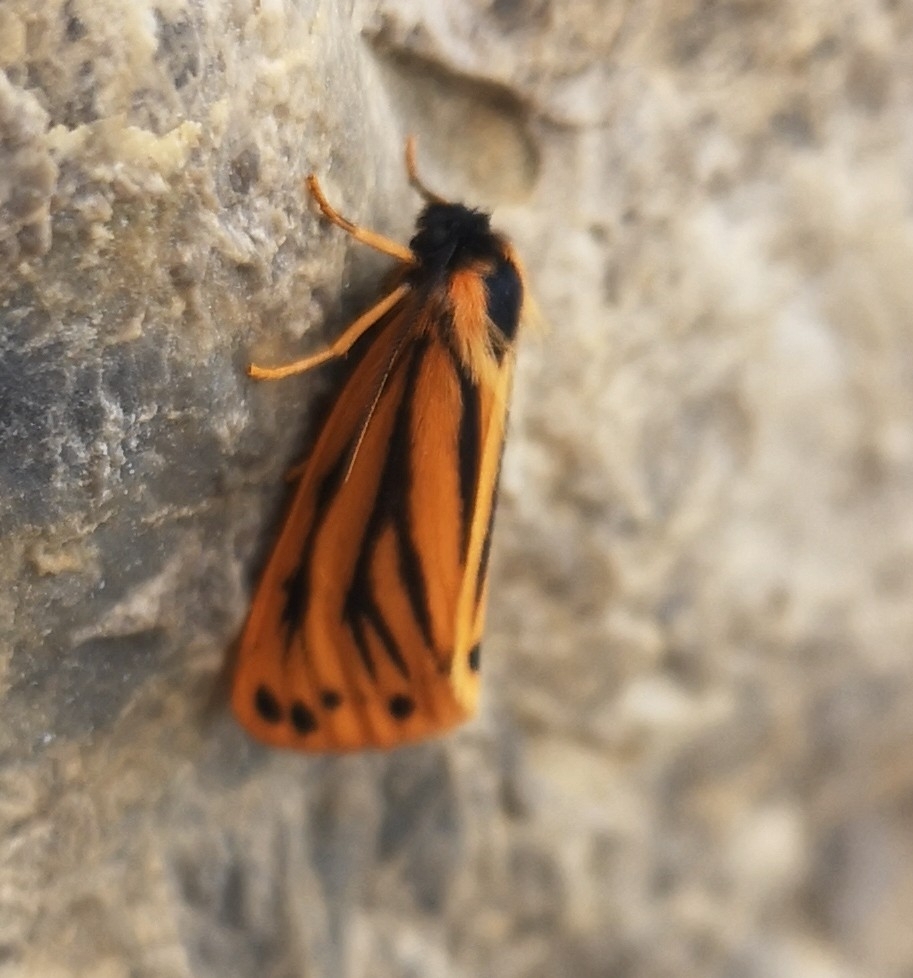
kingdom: Animalia
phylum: Arthropoda
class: Insecta
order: Lepidoptera
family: Erebidae
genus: Setina
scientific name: Setina aurita
